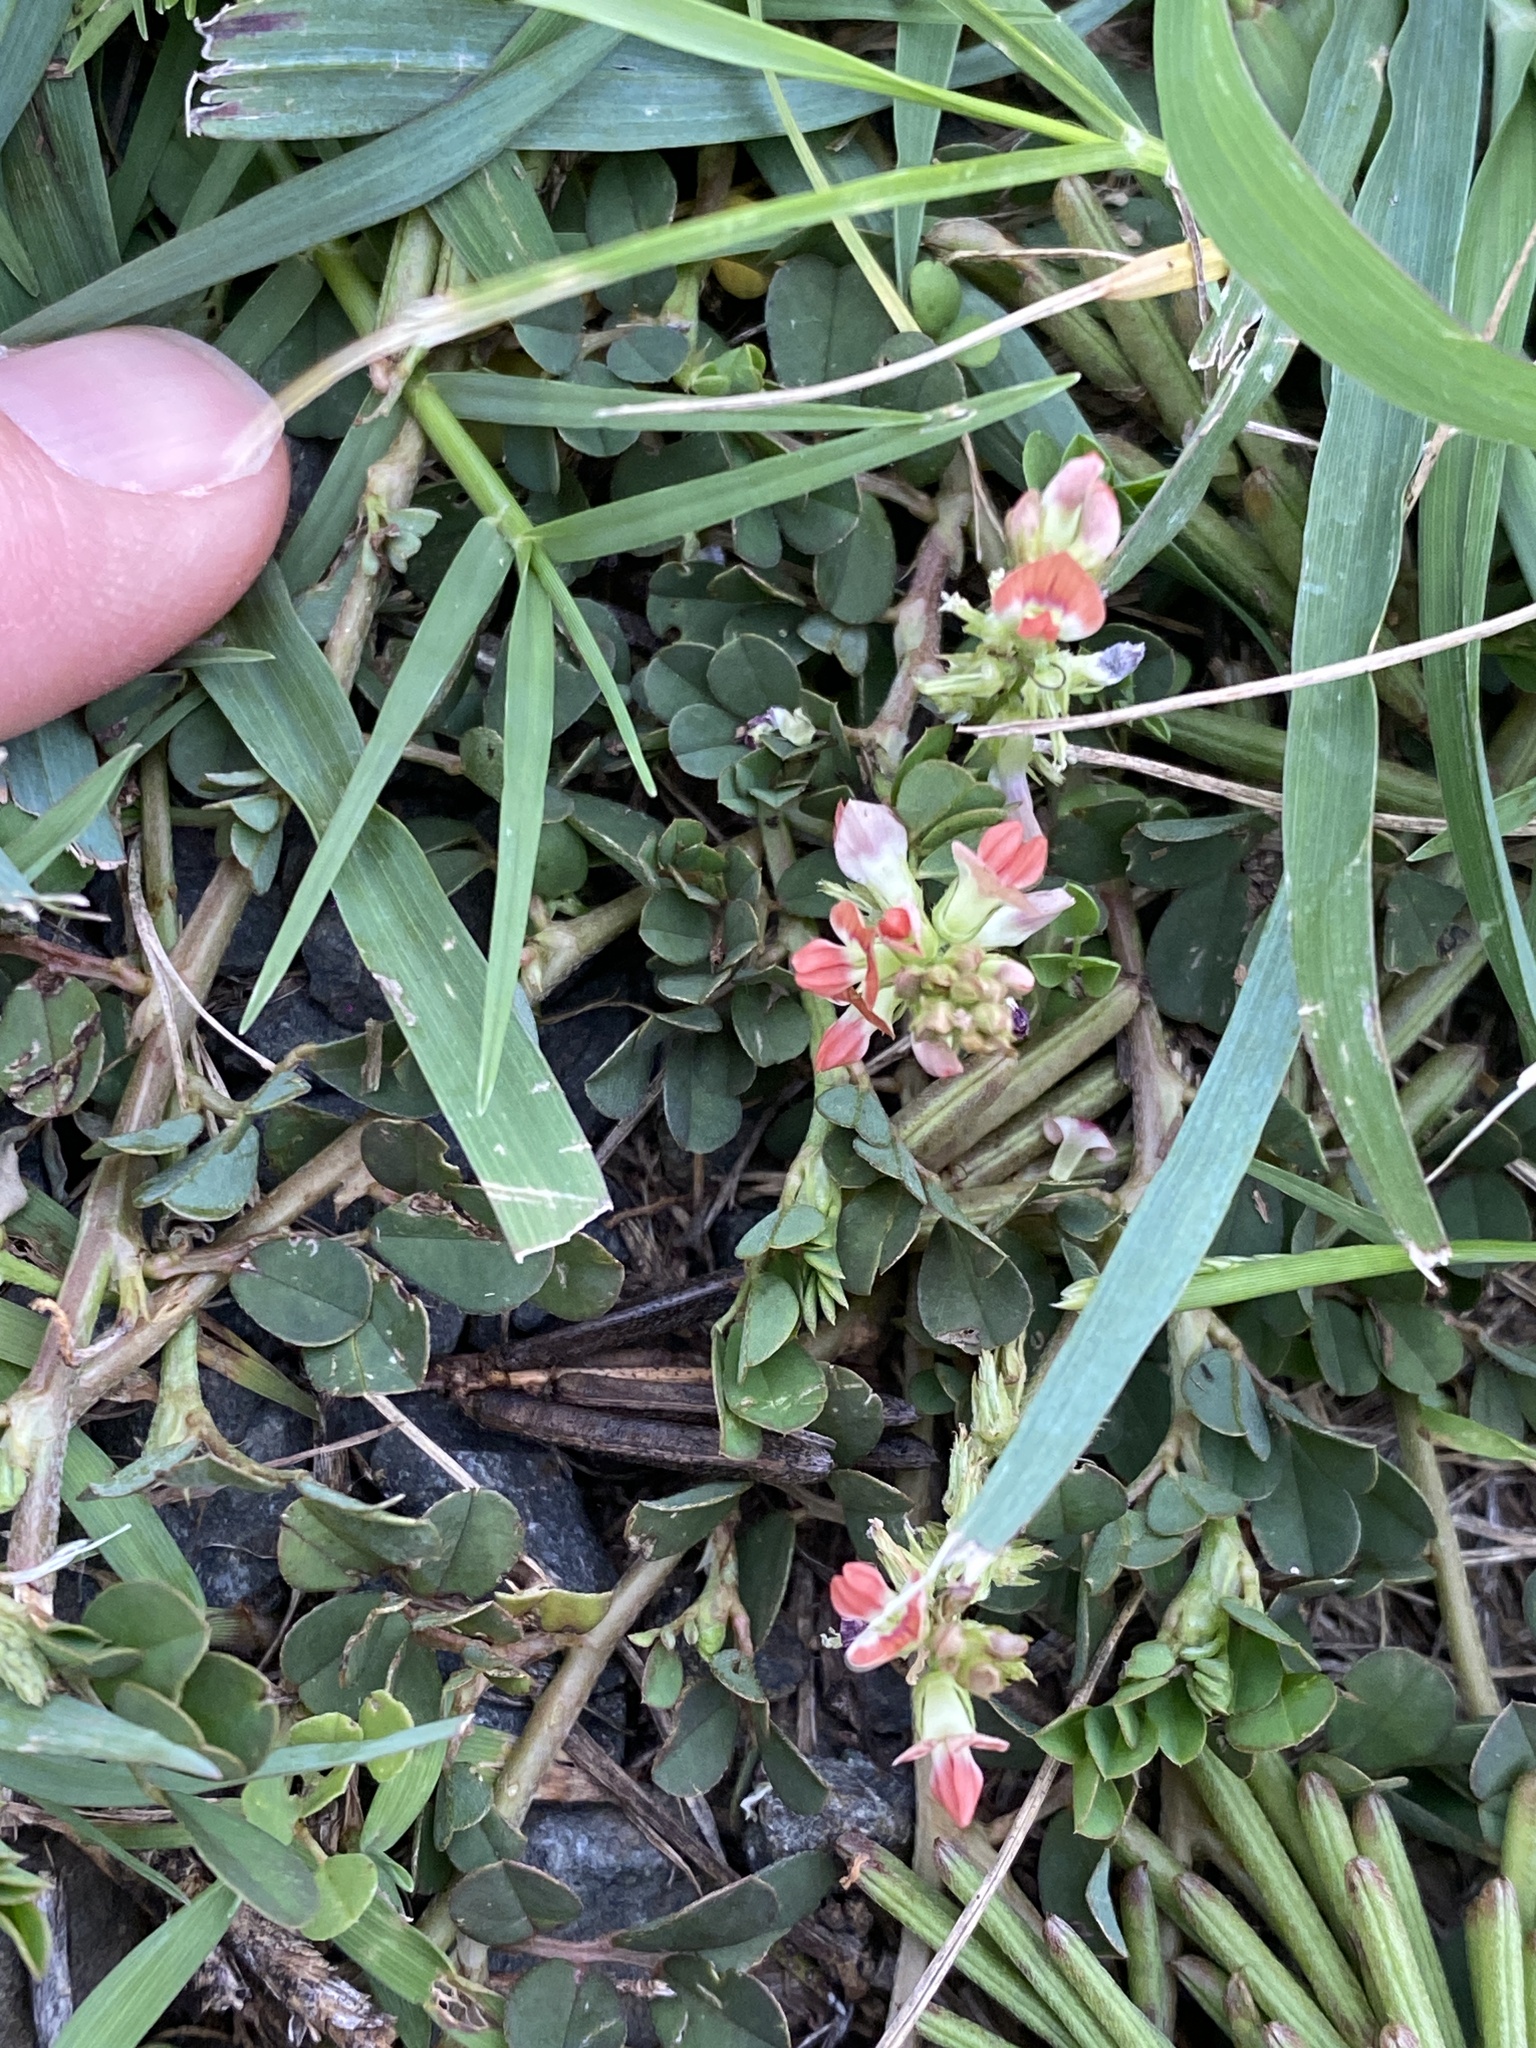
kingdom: Plantae
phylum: Tracheophyta
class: Magnoliopsida
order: Fabales
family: Fabaceae
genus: Indigofera
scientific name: Indigofera spicata
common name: Creeping indigo
